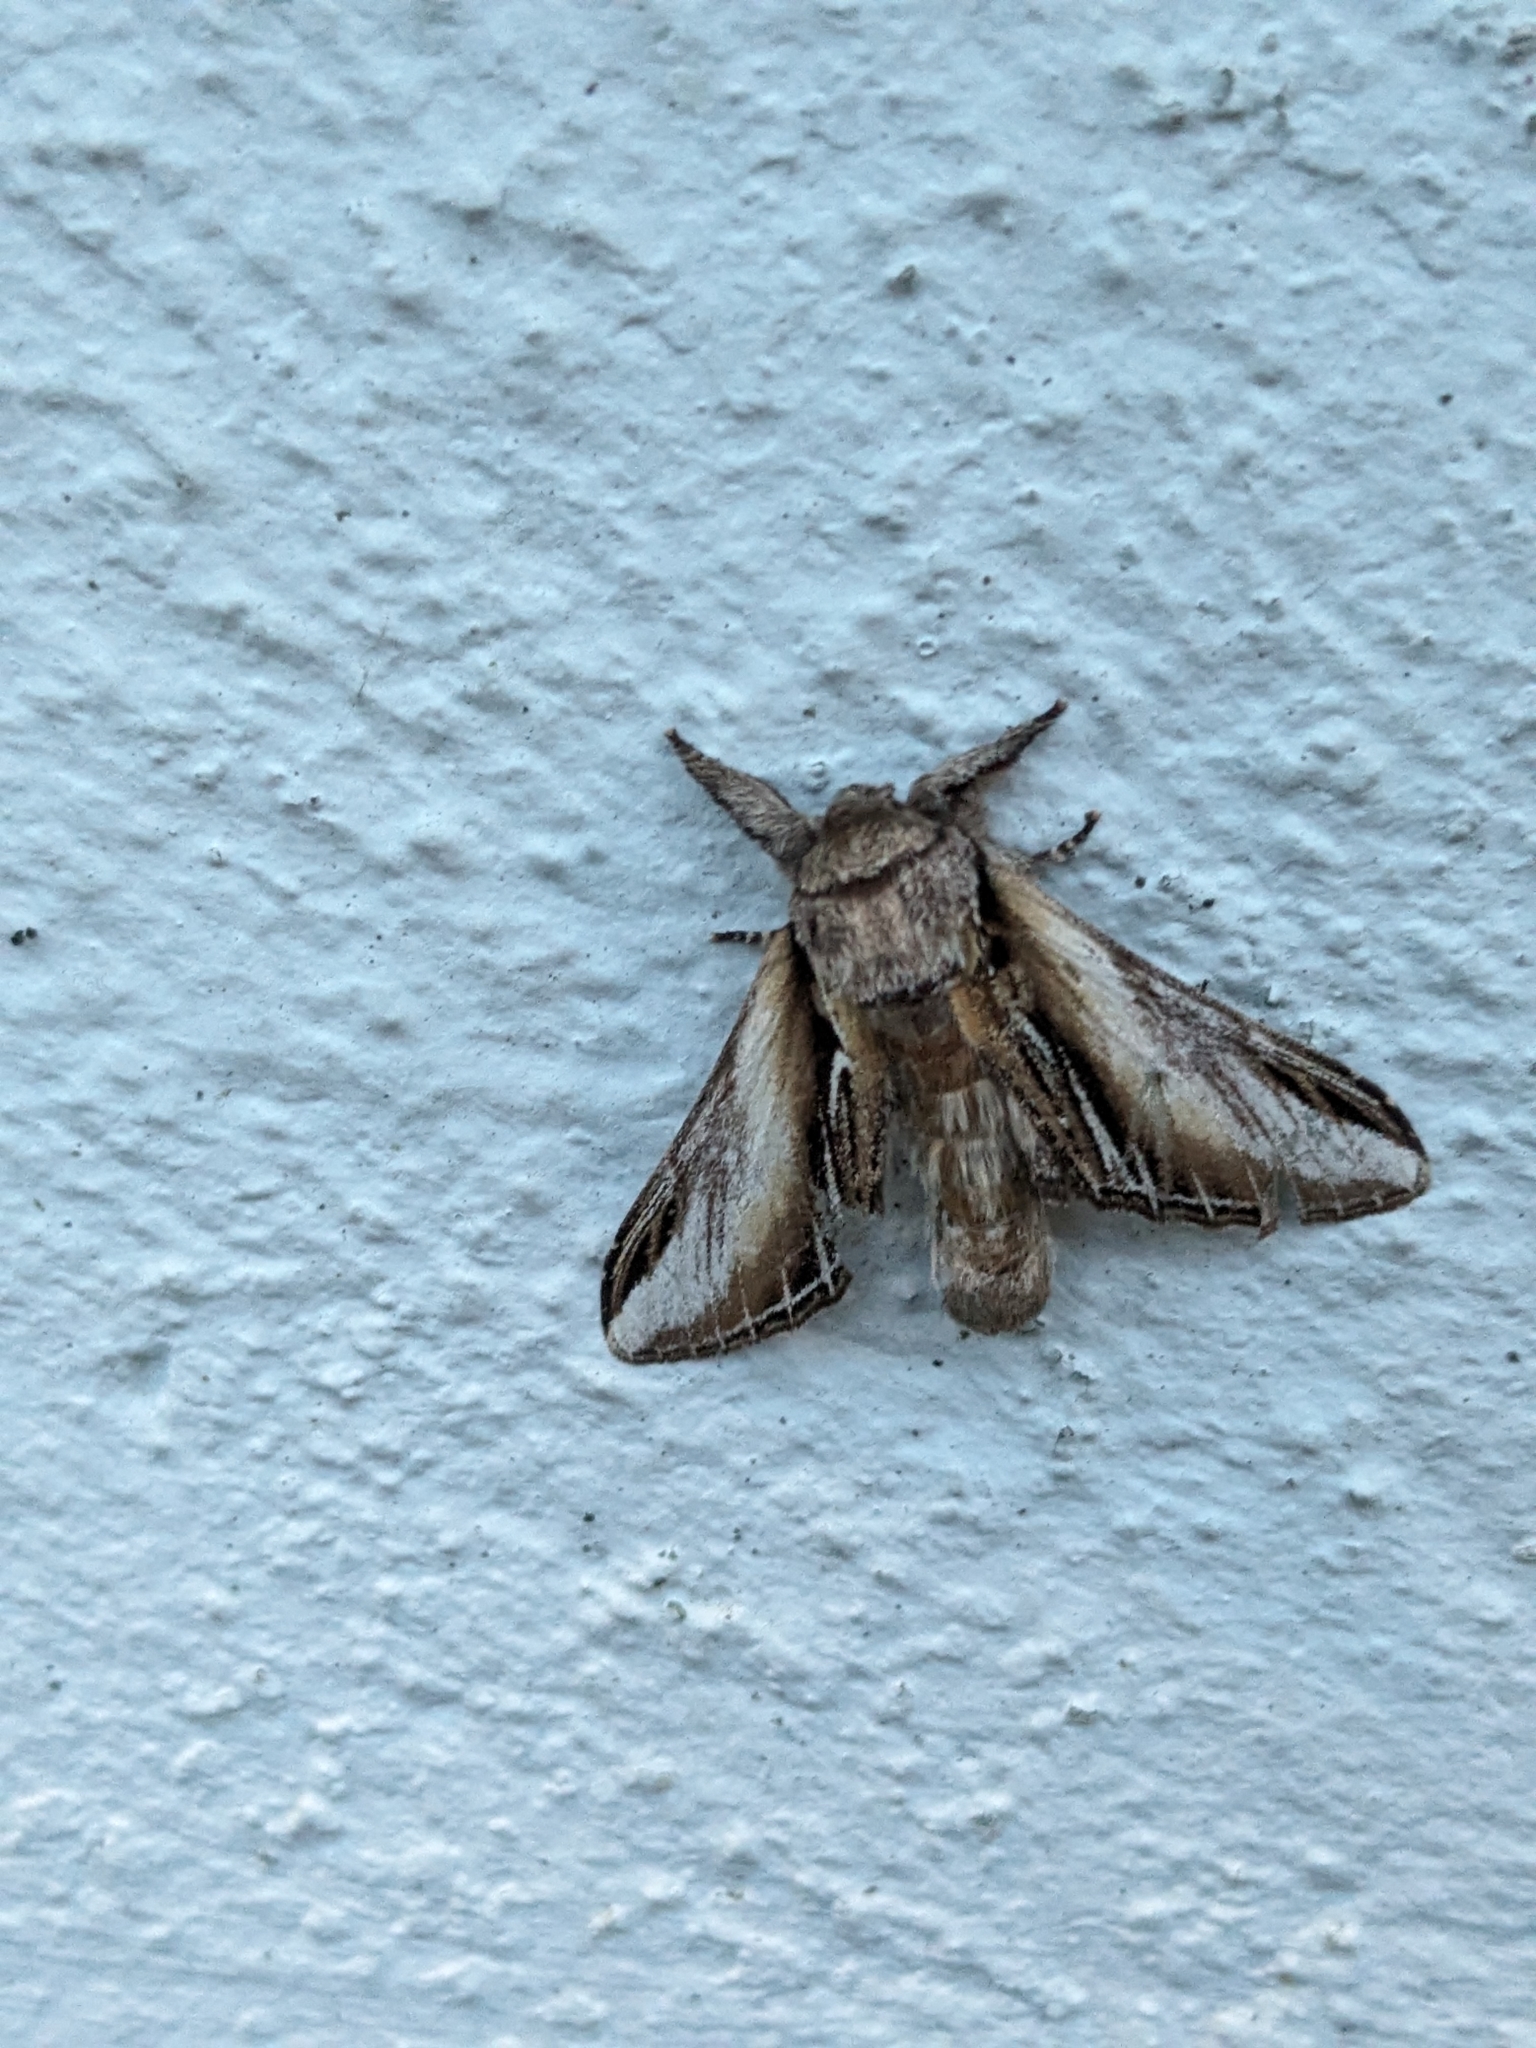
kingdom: Animalia
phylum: Arthropoda
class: Insecta
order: Lepidoptera
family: Notodontidae
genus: Pheosia
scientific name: Pheosia tremula
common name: Swallow prominent
